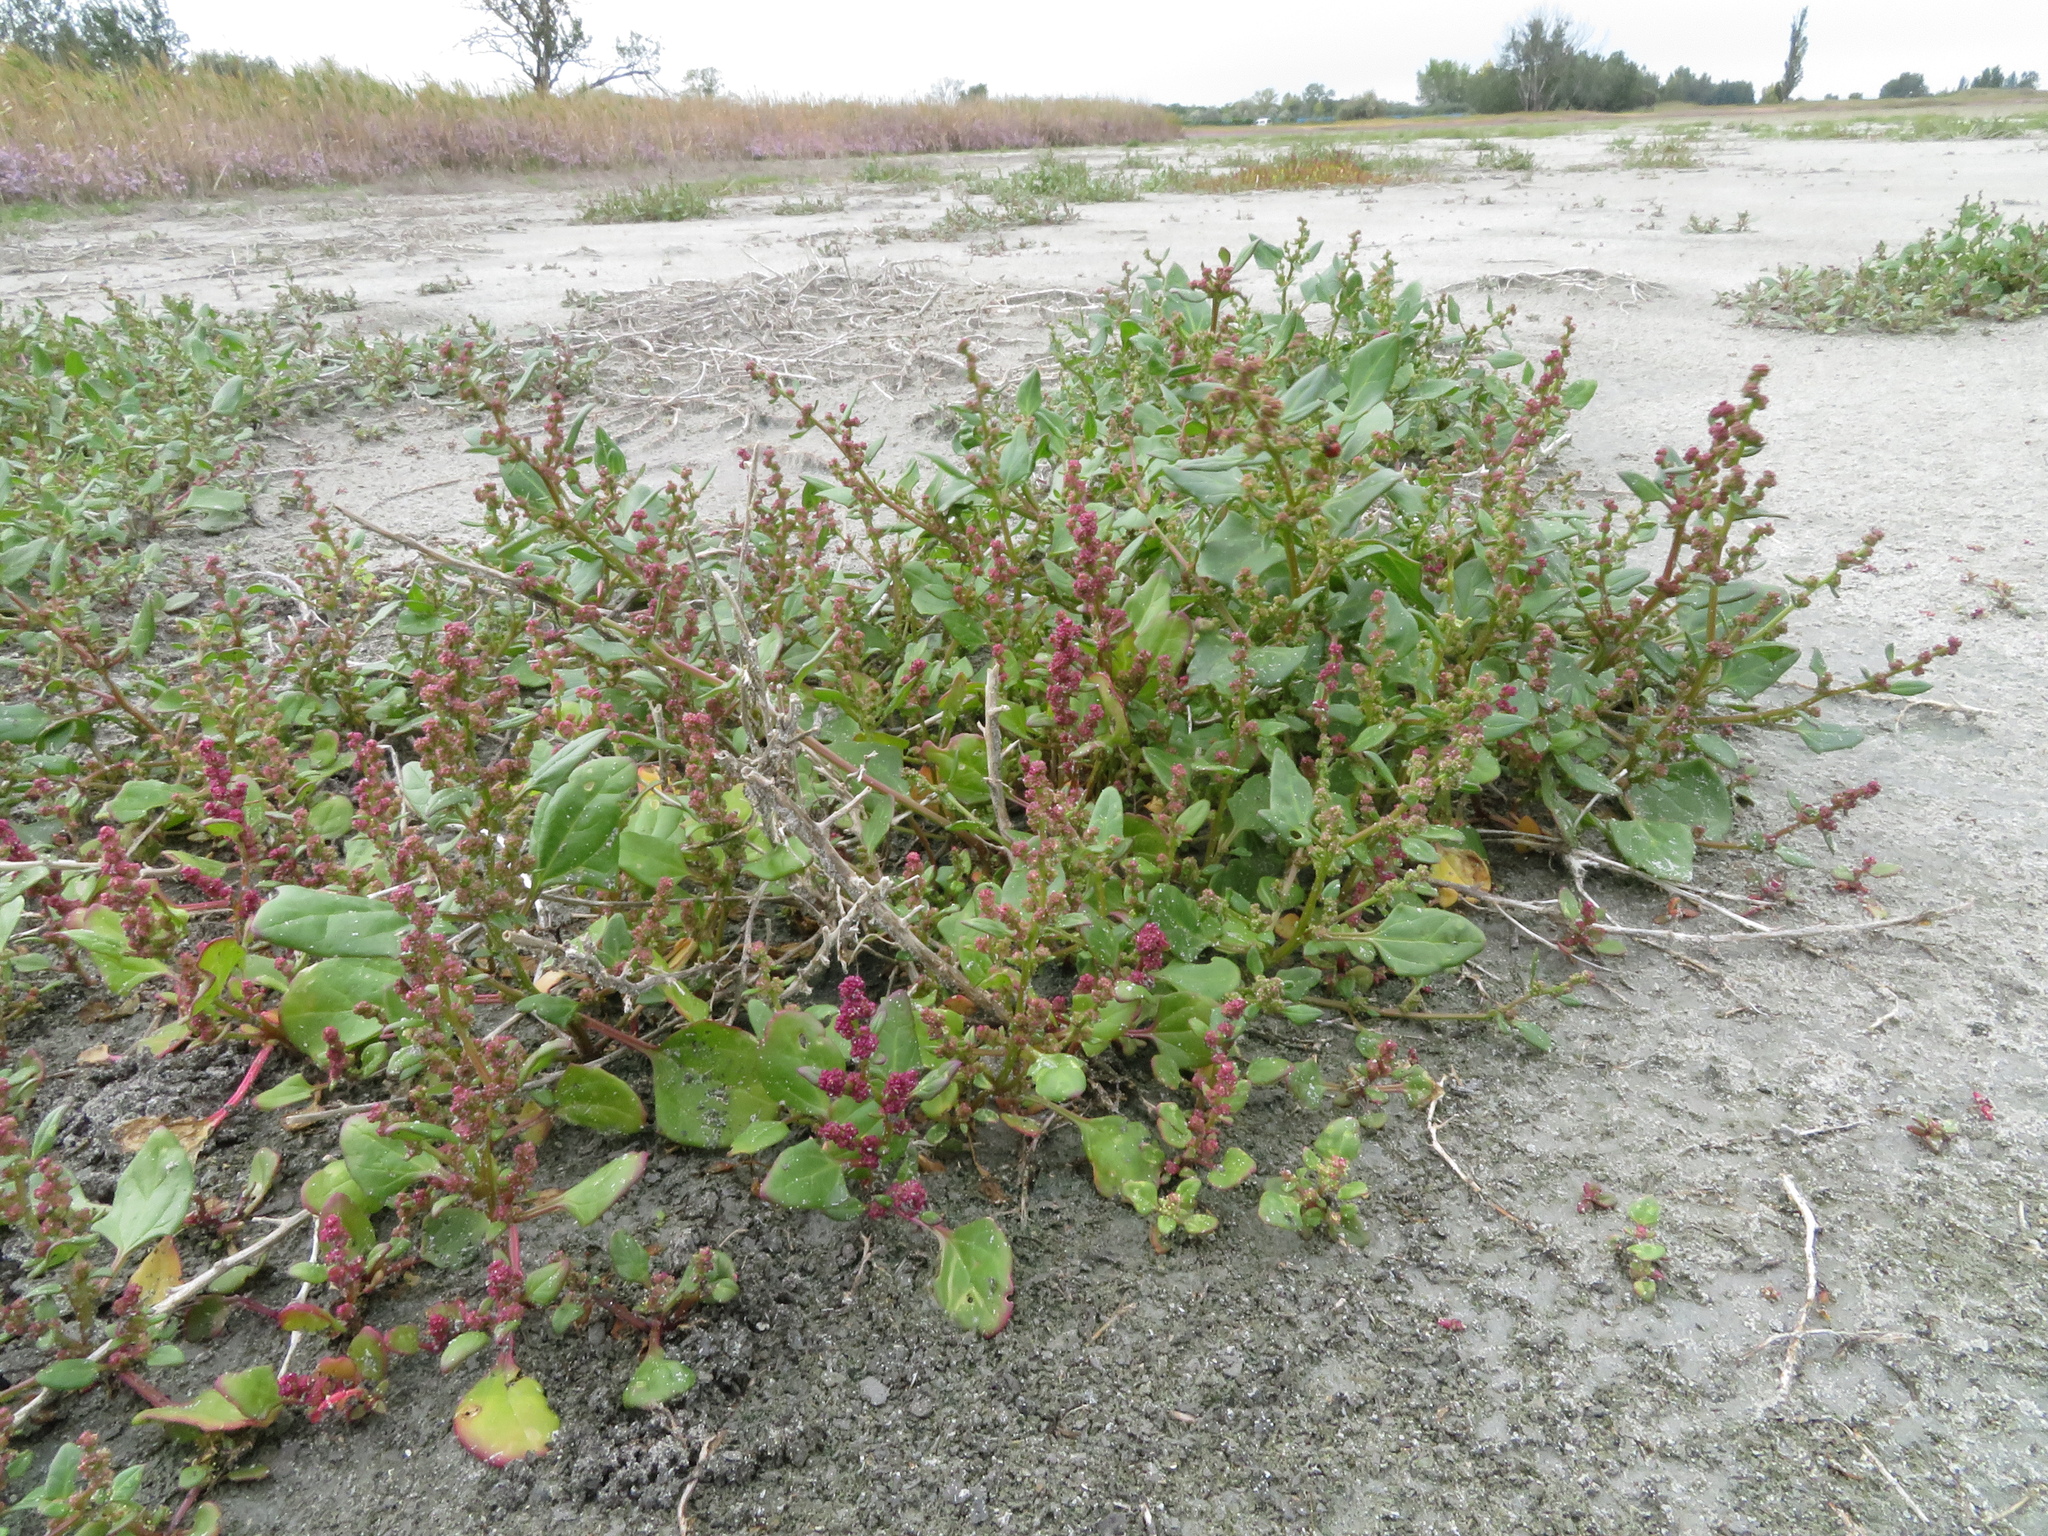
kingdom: Plantae
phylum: Tracheophyta
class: Magnoliopsida
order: Caryophyllales
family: Amaranthaceae
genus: Oxybasis
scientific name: Oxybasis chenopodioides
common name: Saltmarsh goosefoot
